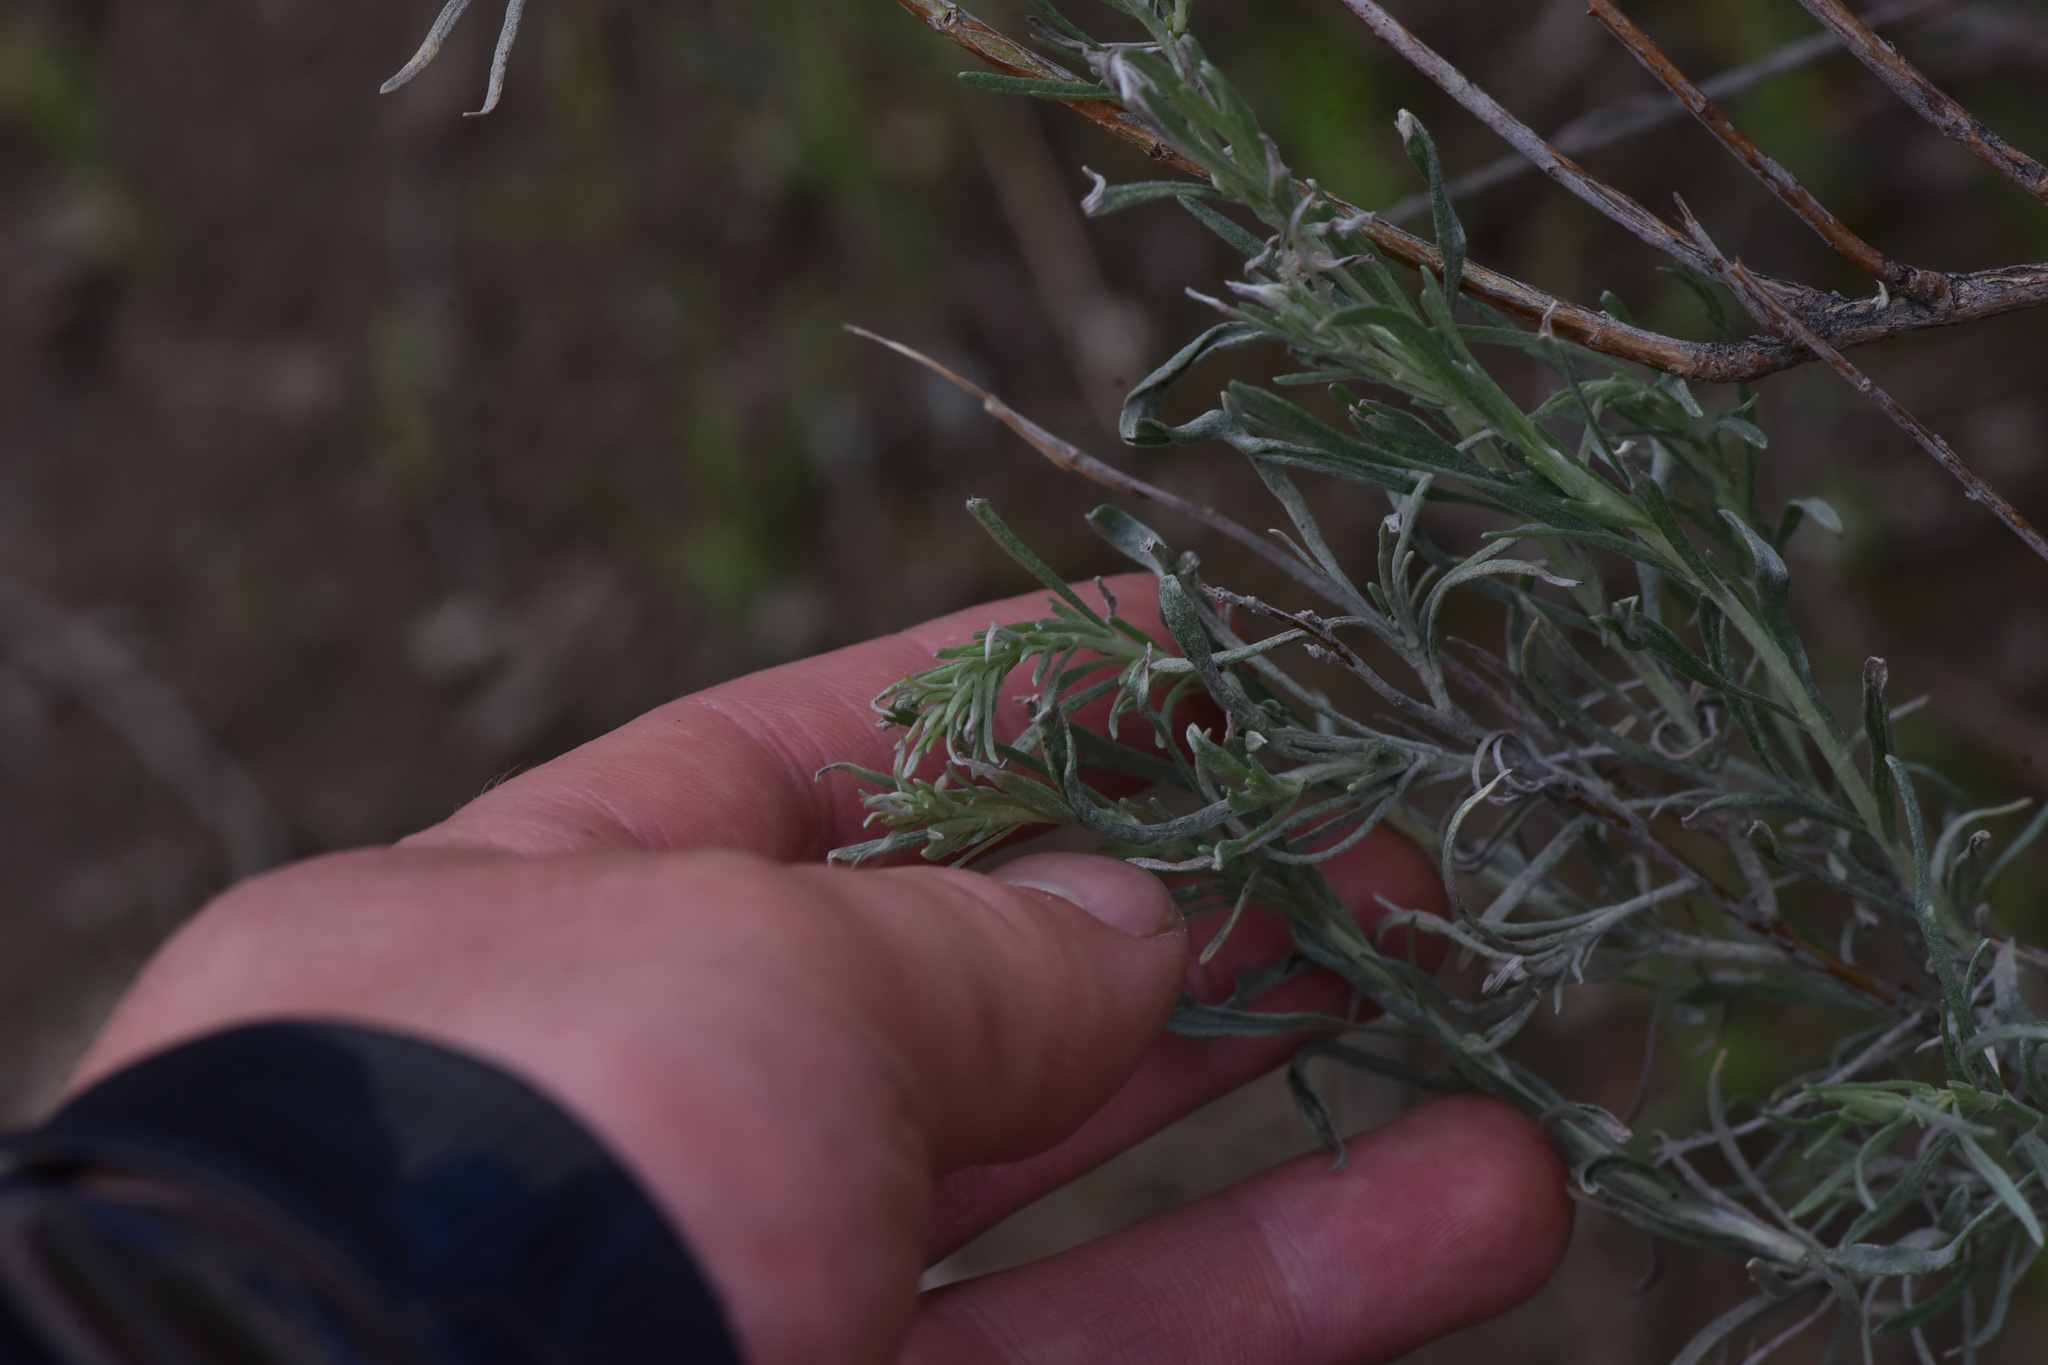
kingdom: Plantae
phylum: Tracheophyta
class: Magnoliopsida
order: Asterales
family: Asteraceae
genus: Artemisia
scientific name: Artemisia tridentata
